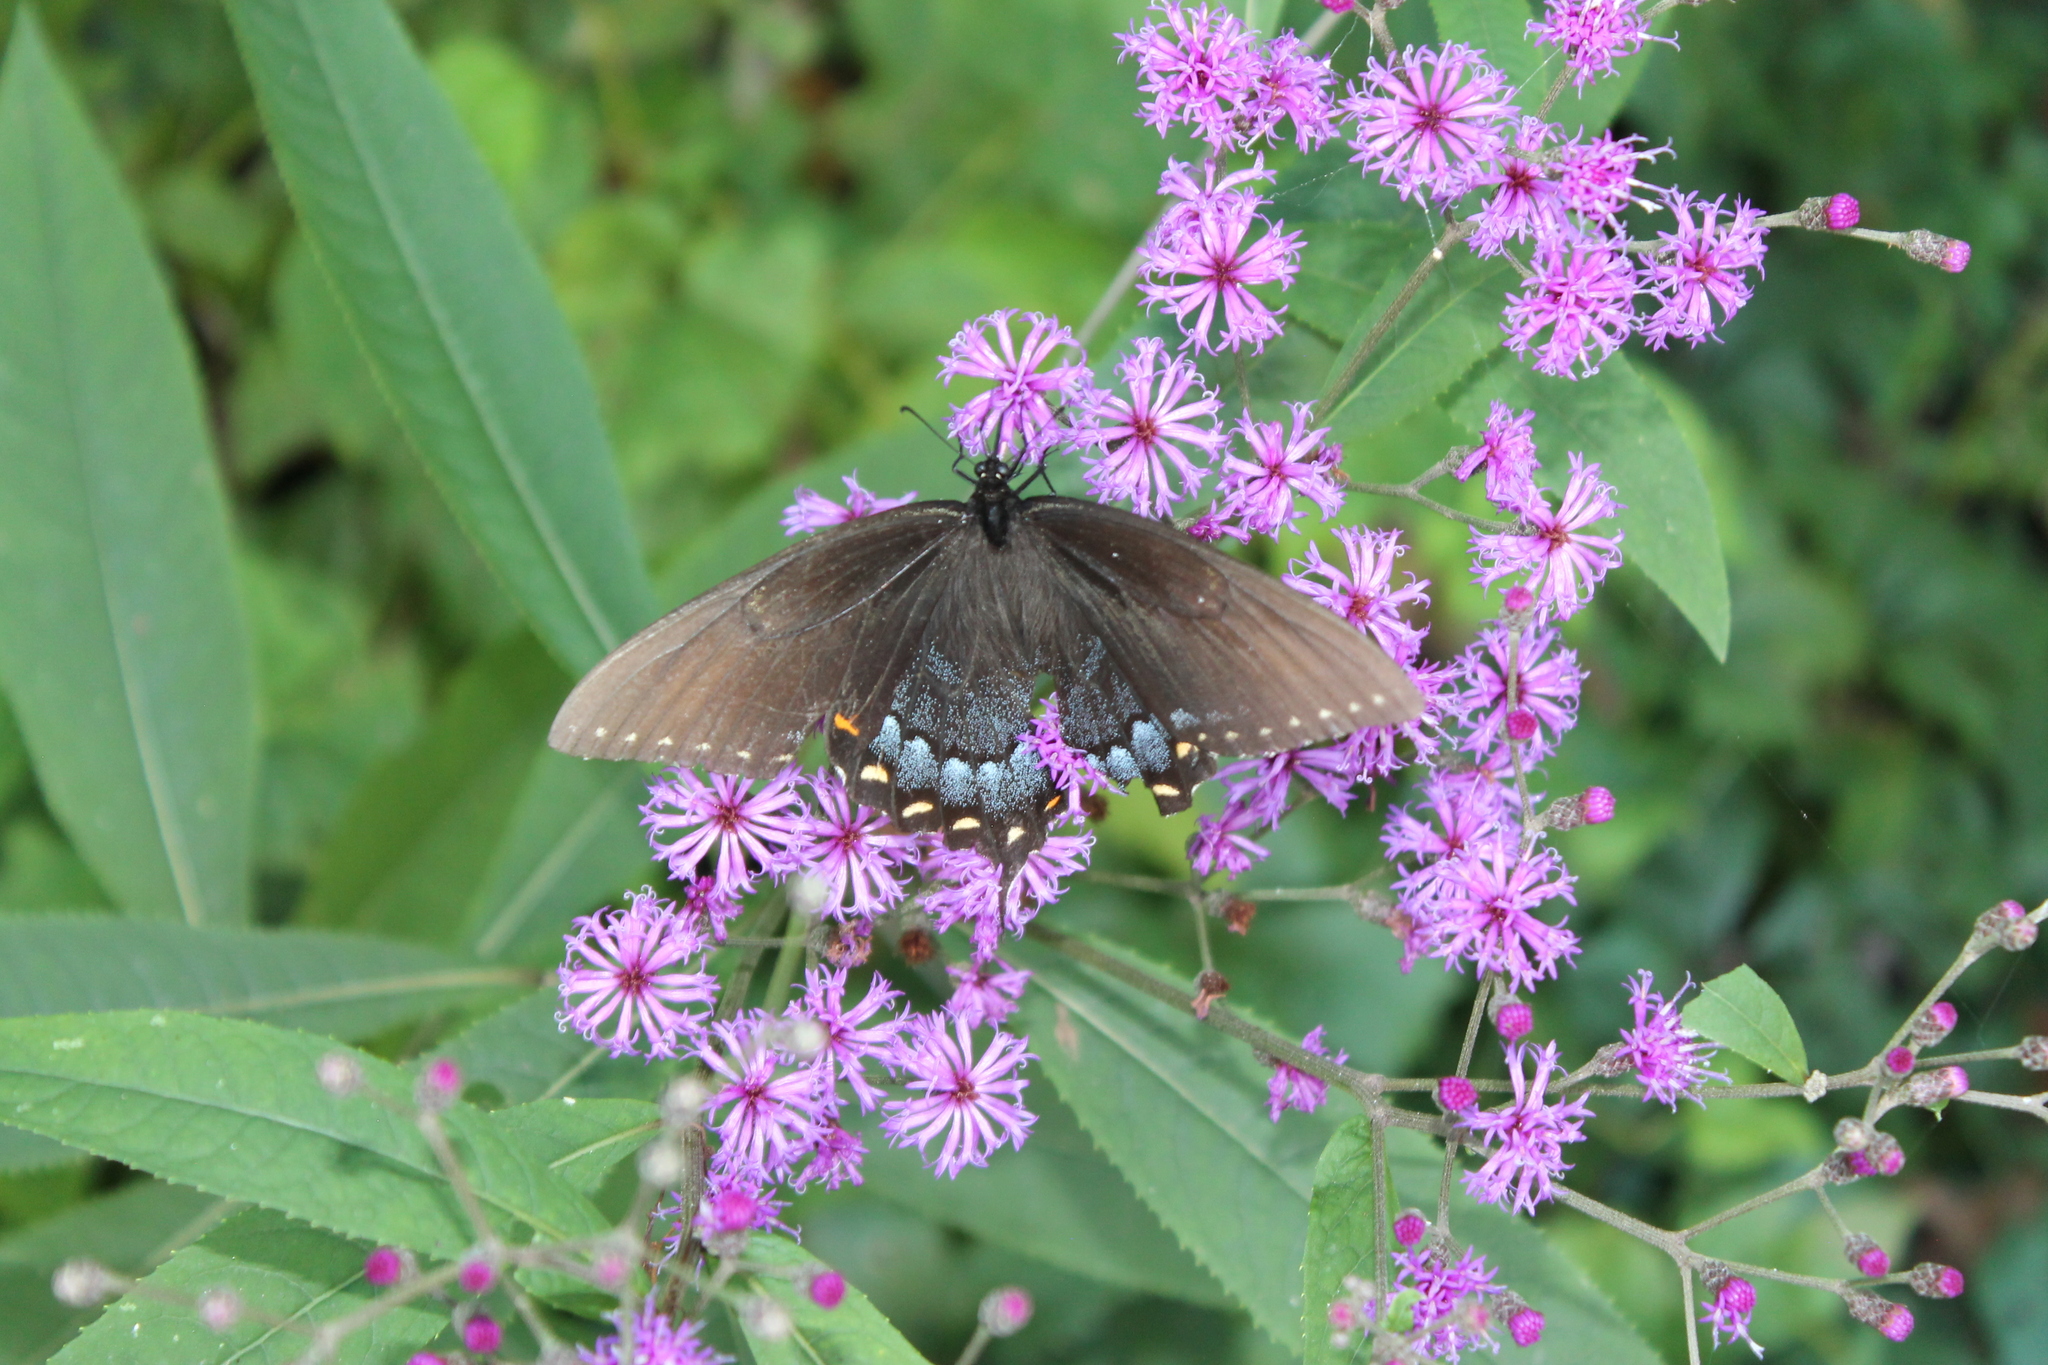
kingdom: Animalia
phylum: Arthropoda
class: Insecta
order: Lepidoptera
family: Papilionidae
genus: Papilio
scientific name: Papilio glaucus
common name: Tiger swallowtail
